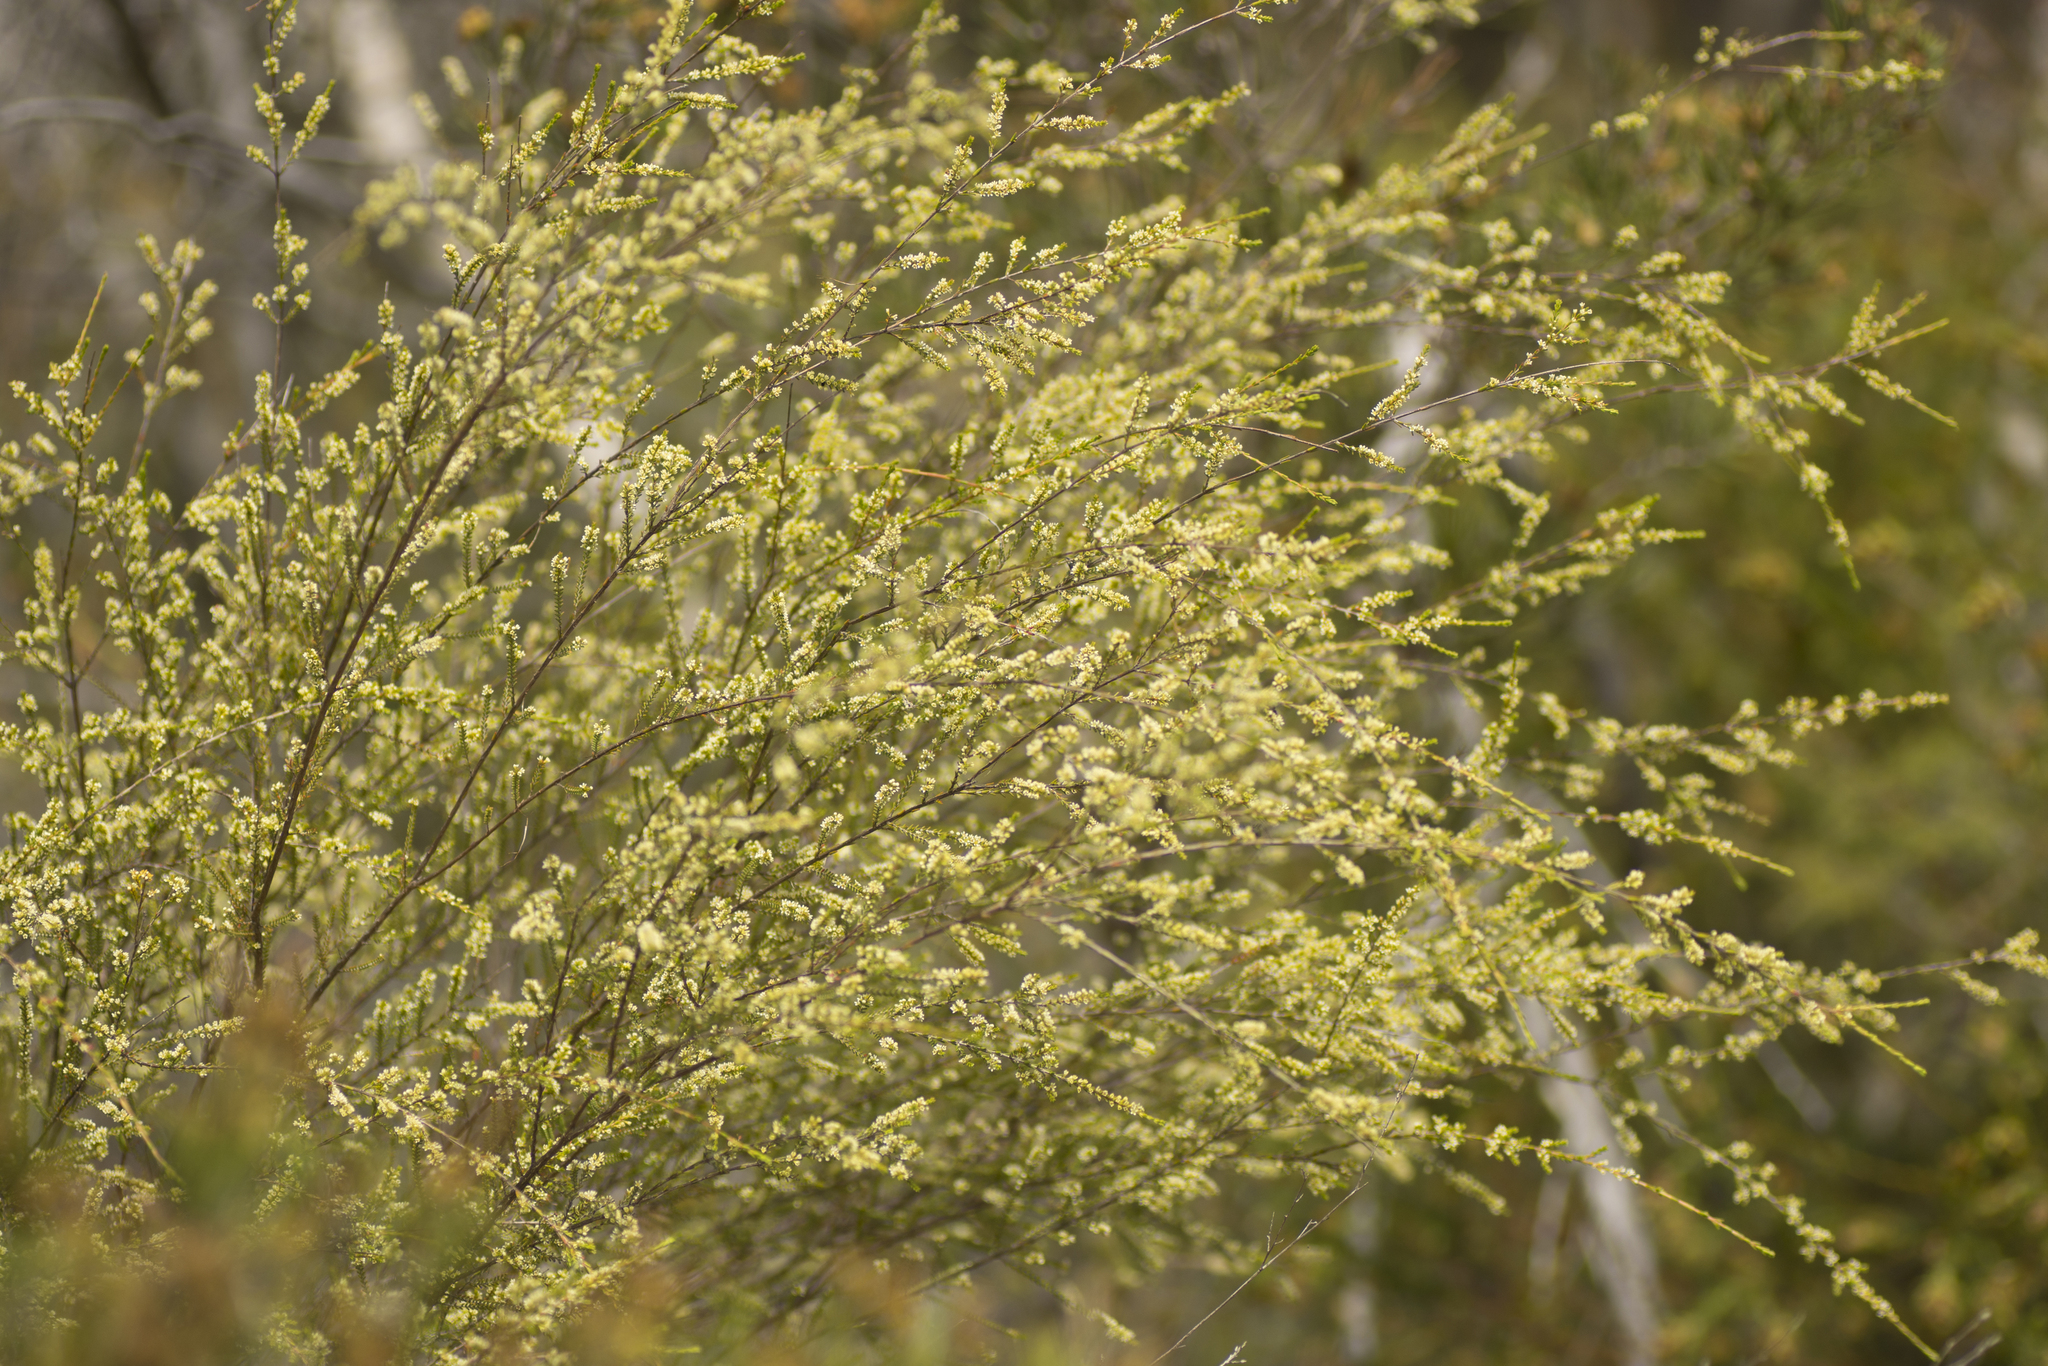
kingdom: Plantae
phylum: Tracheophyta
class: Magnoliopsida
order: Myrtales
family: Myrtaceae
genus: Micromyrtus
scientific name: Micromyrtus littoralis
